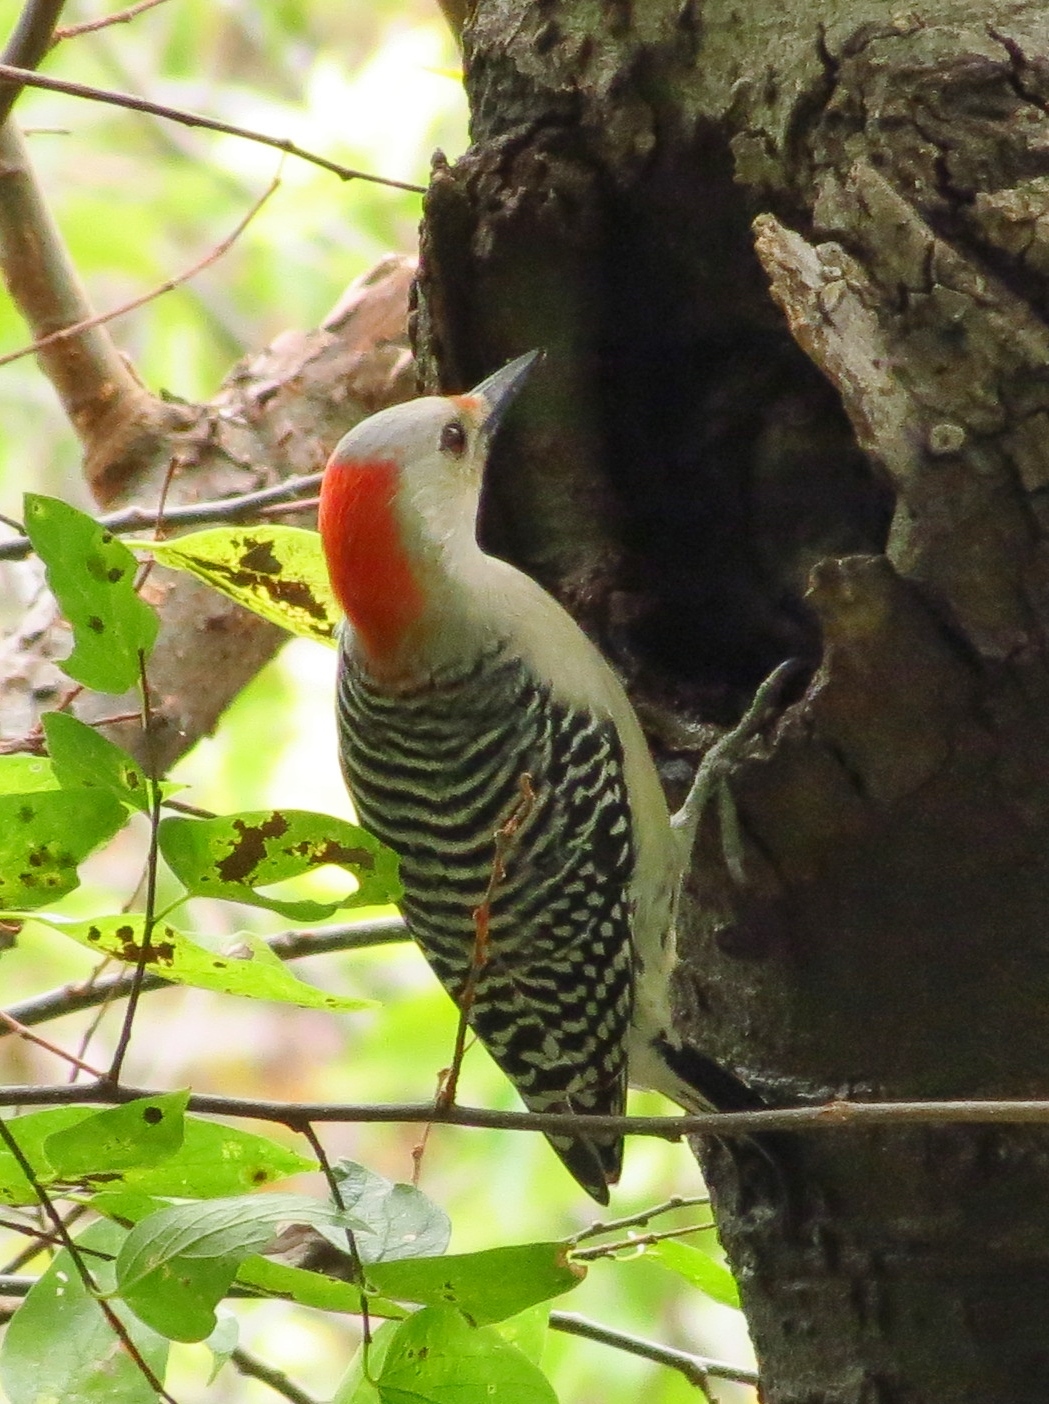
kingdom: Animalia
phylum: Chordata
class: Aves
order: Piciformes
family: Picidae
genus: Melanerpes
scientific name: Melanerpes carolinus
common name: Red-bellied woodpecker
